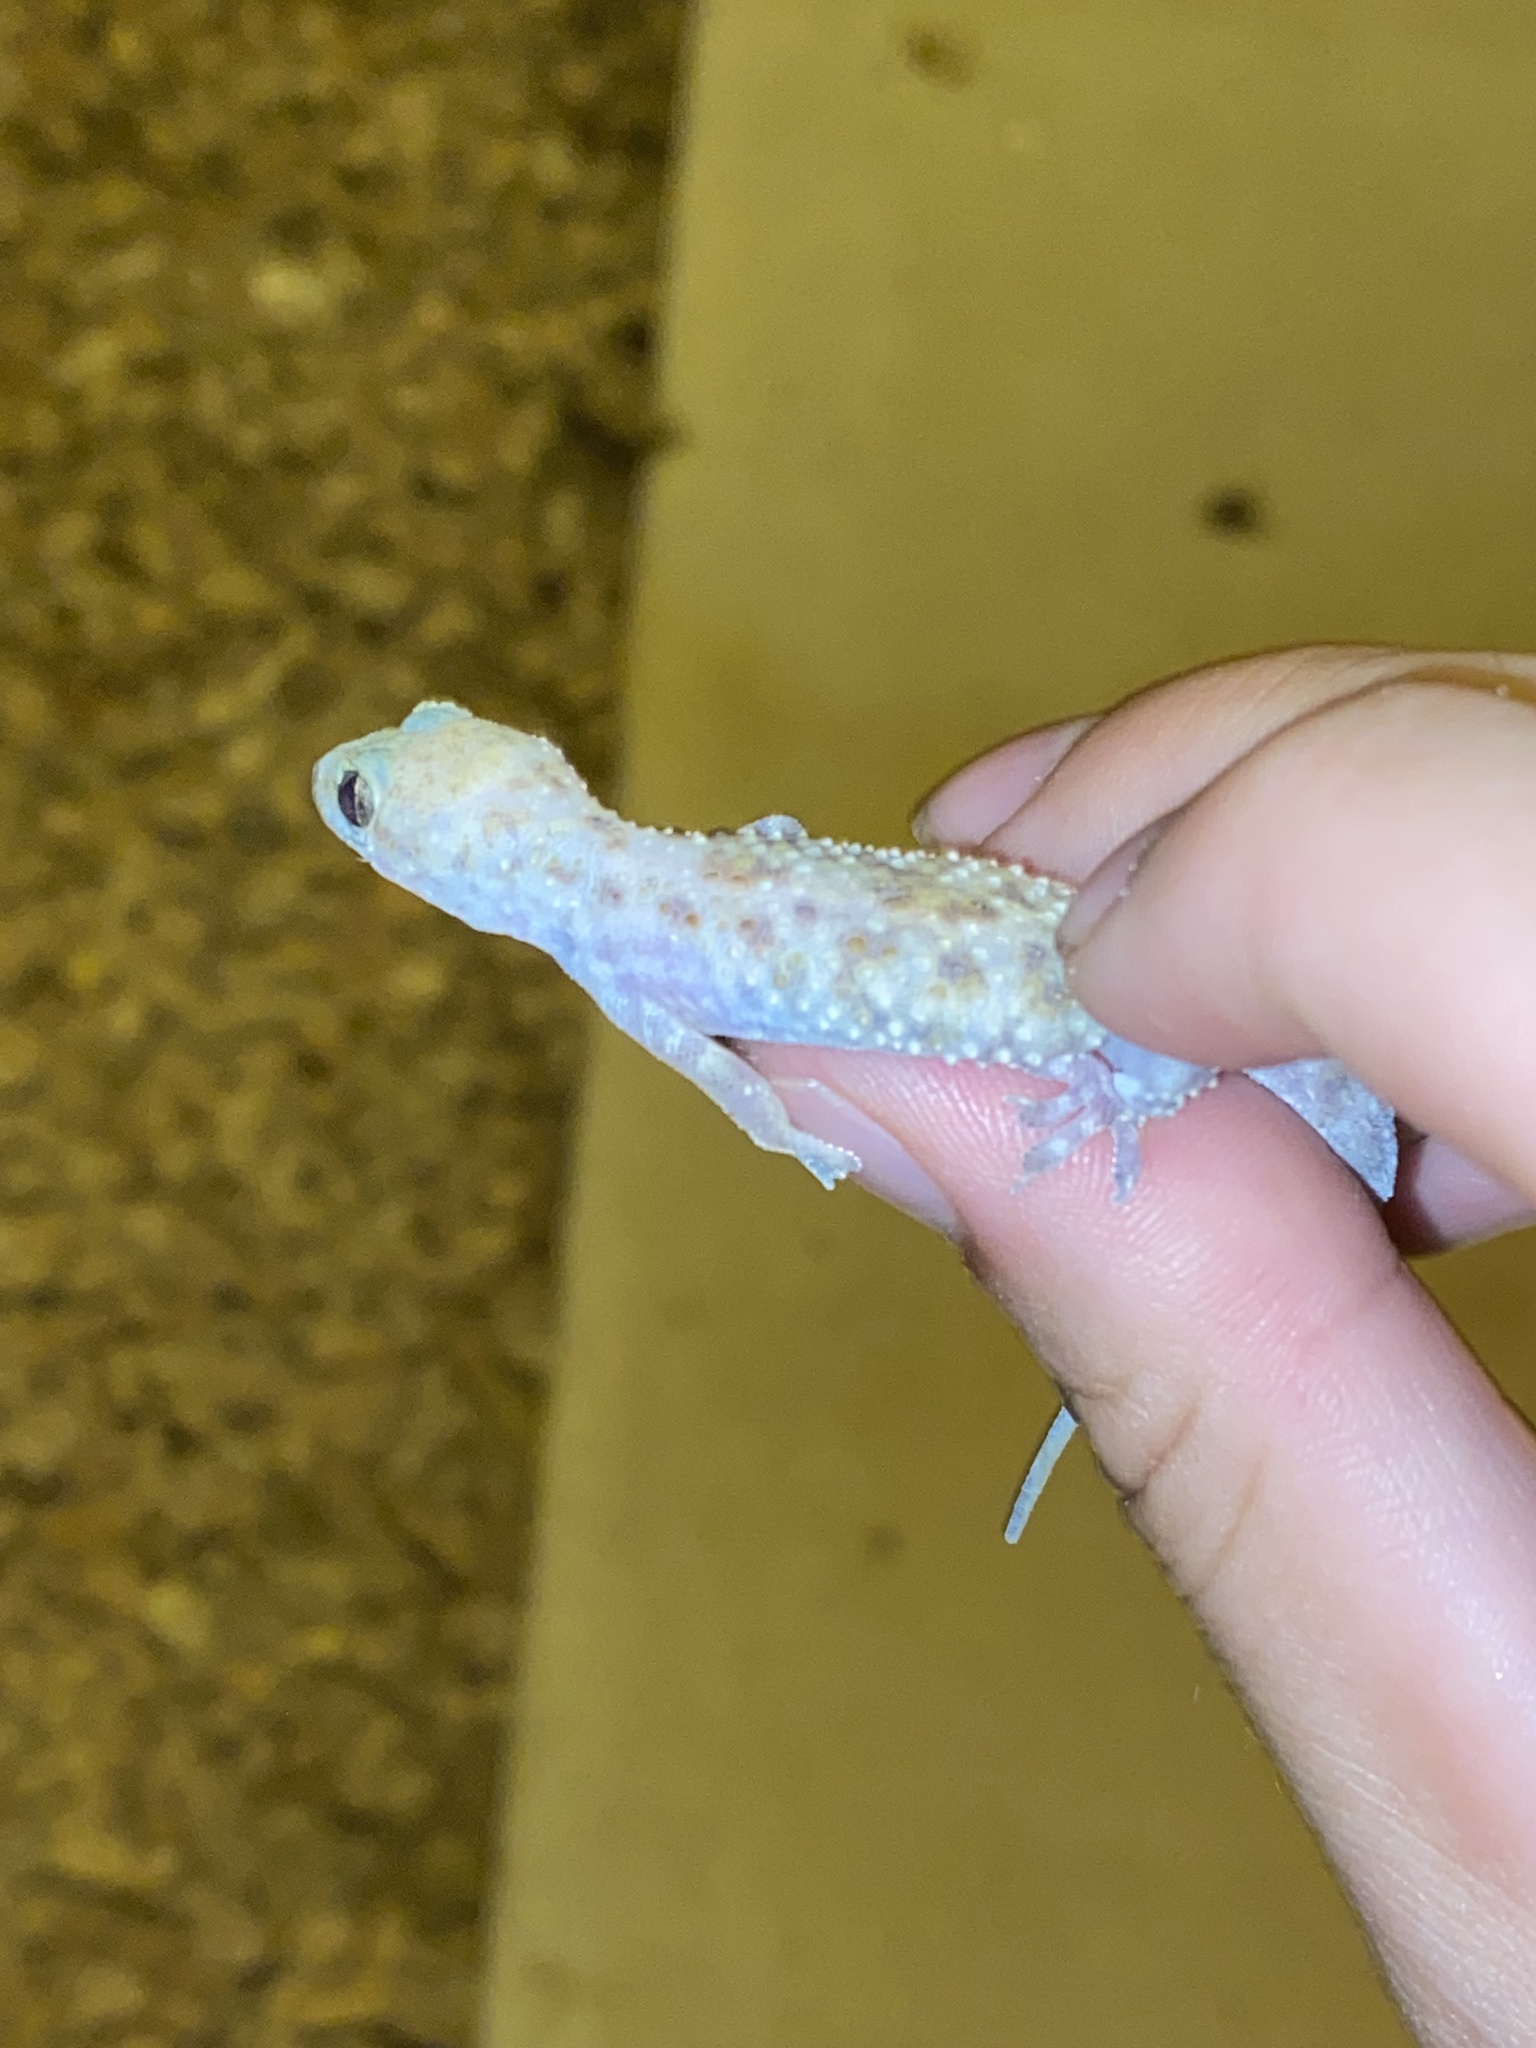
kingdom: Animalia
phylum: Chordata
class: Squamata
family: Gekkonidae
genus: Hemidactylus
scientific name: Hemidactylus turcicus
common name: Turkish gecko
